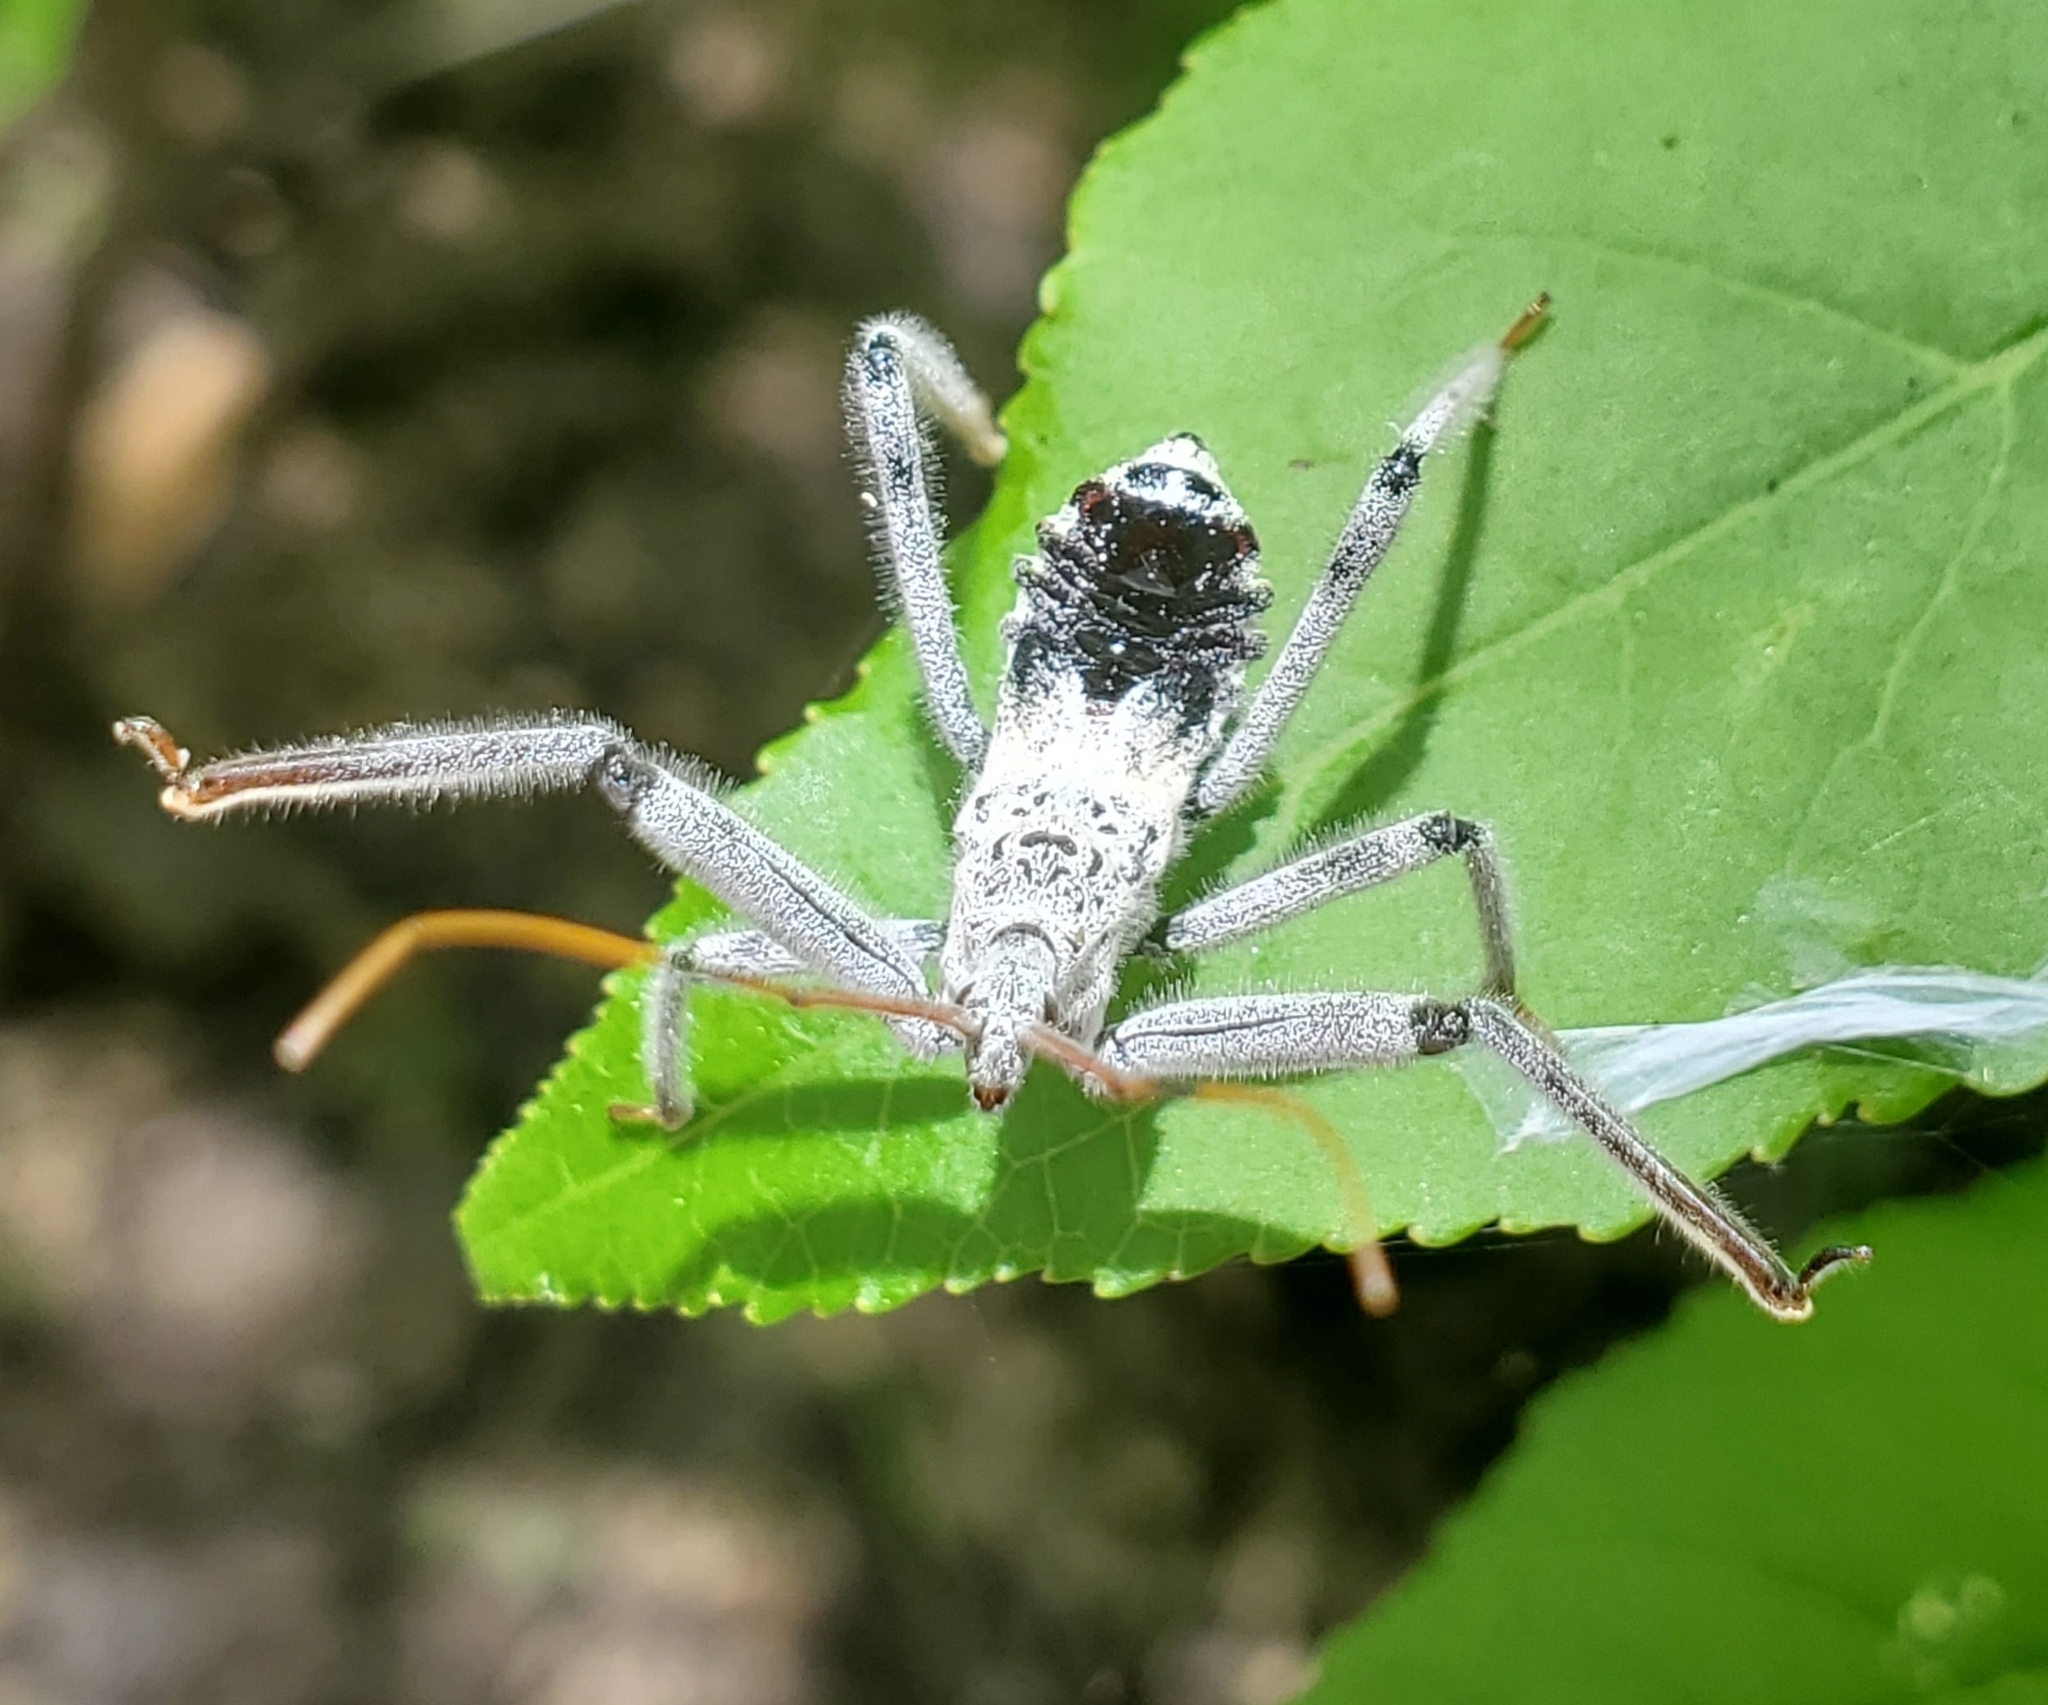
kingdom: Animalia
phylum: Arthropoda
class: Insecta
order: Hemiptera
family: Reduviidae
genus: Arilus
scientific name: Arilus cristatus
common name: North american wheel bug
